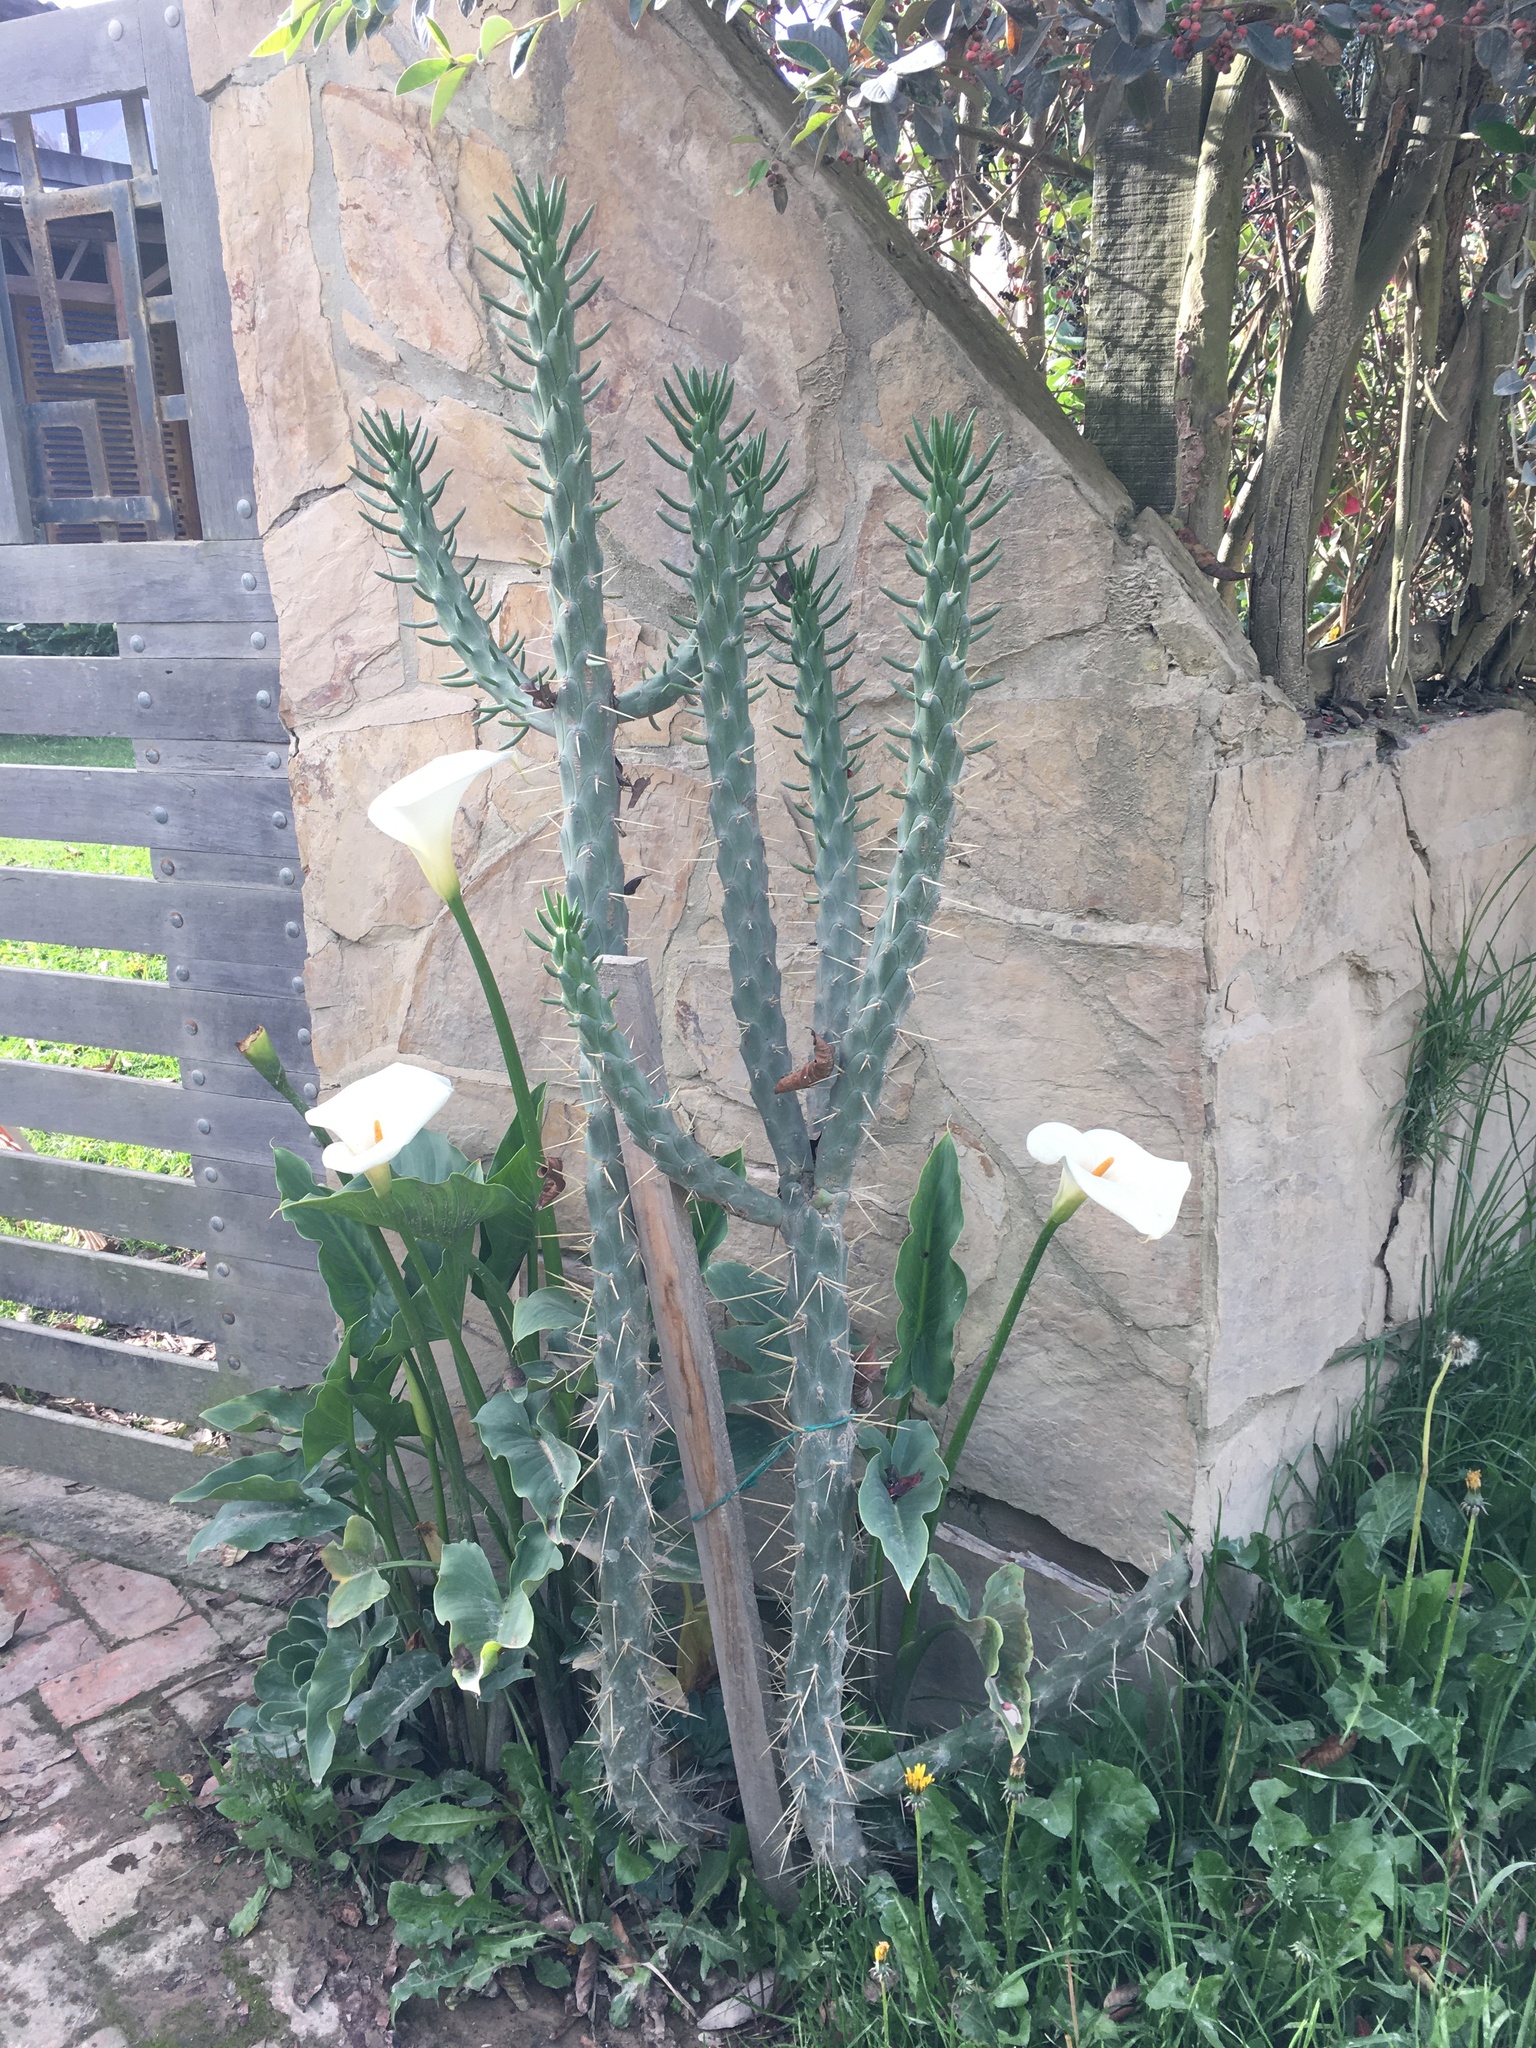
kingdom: Plantae
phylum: Tracheophyta
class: Magnoliopsida
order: Caryophyllales
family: Cactaceae
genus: Austrocylindropuntia
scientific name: Austrocylindropuntia subulata
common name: Eve's needle cactus
